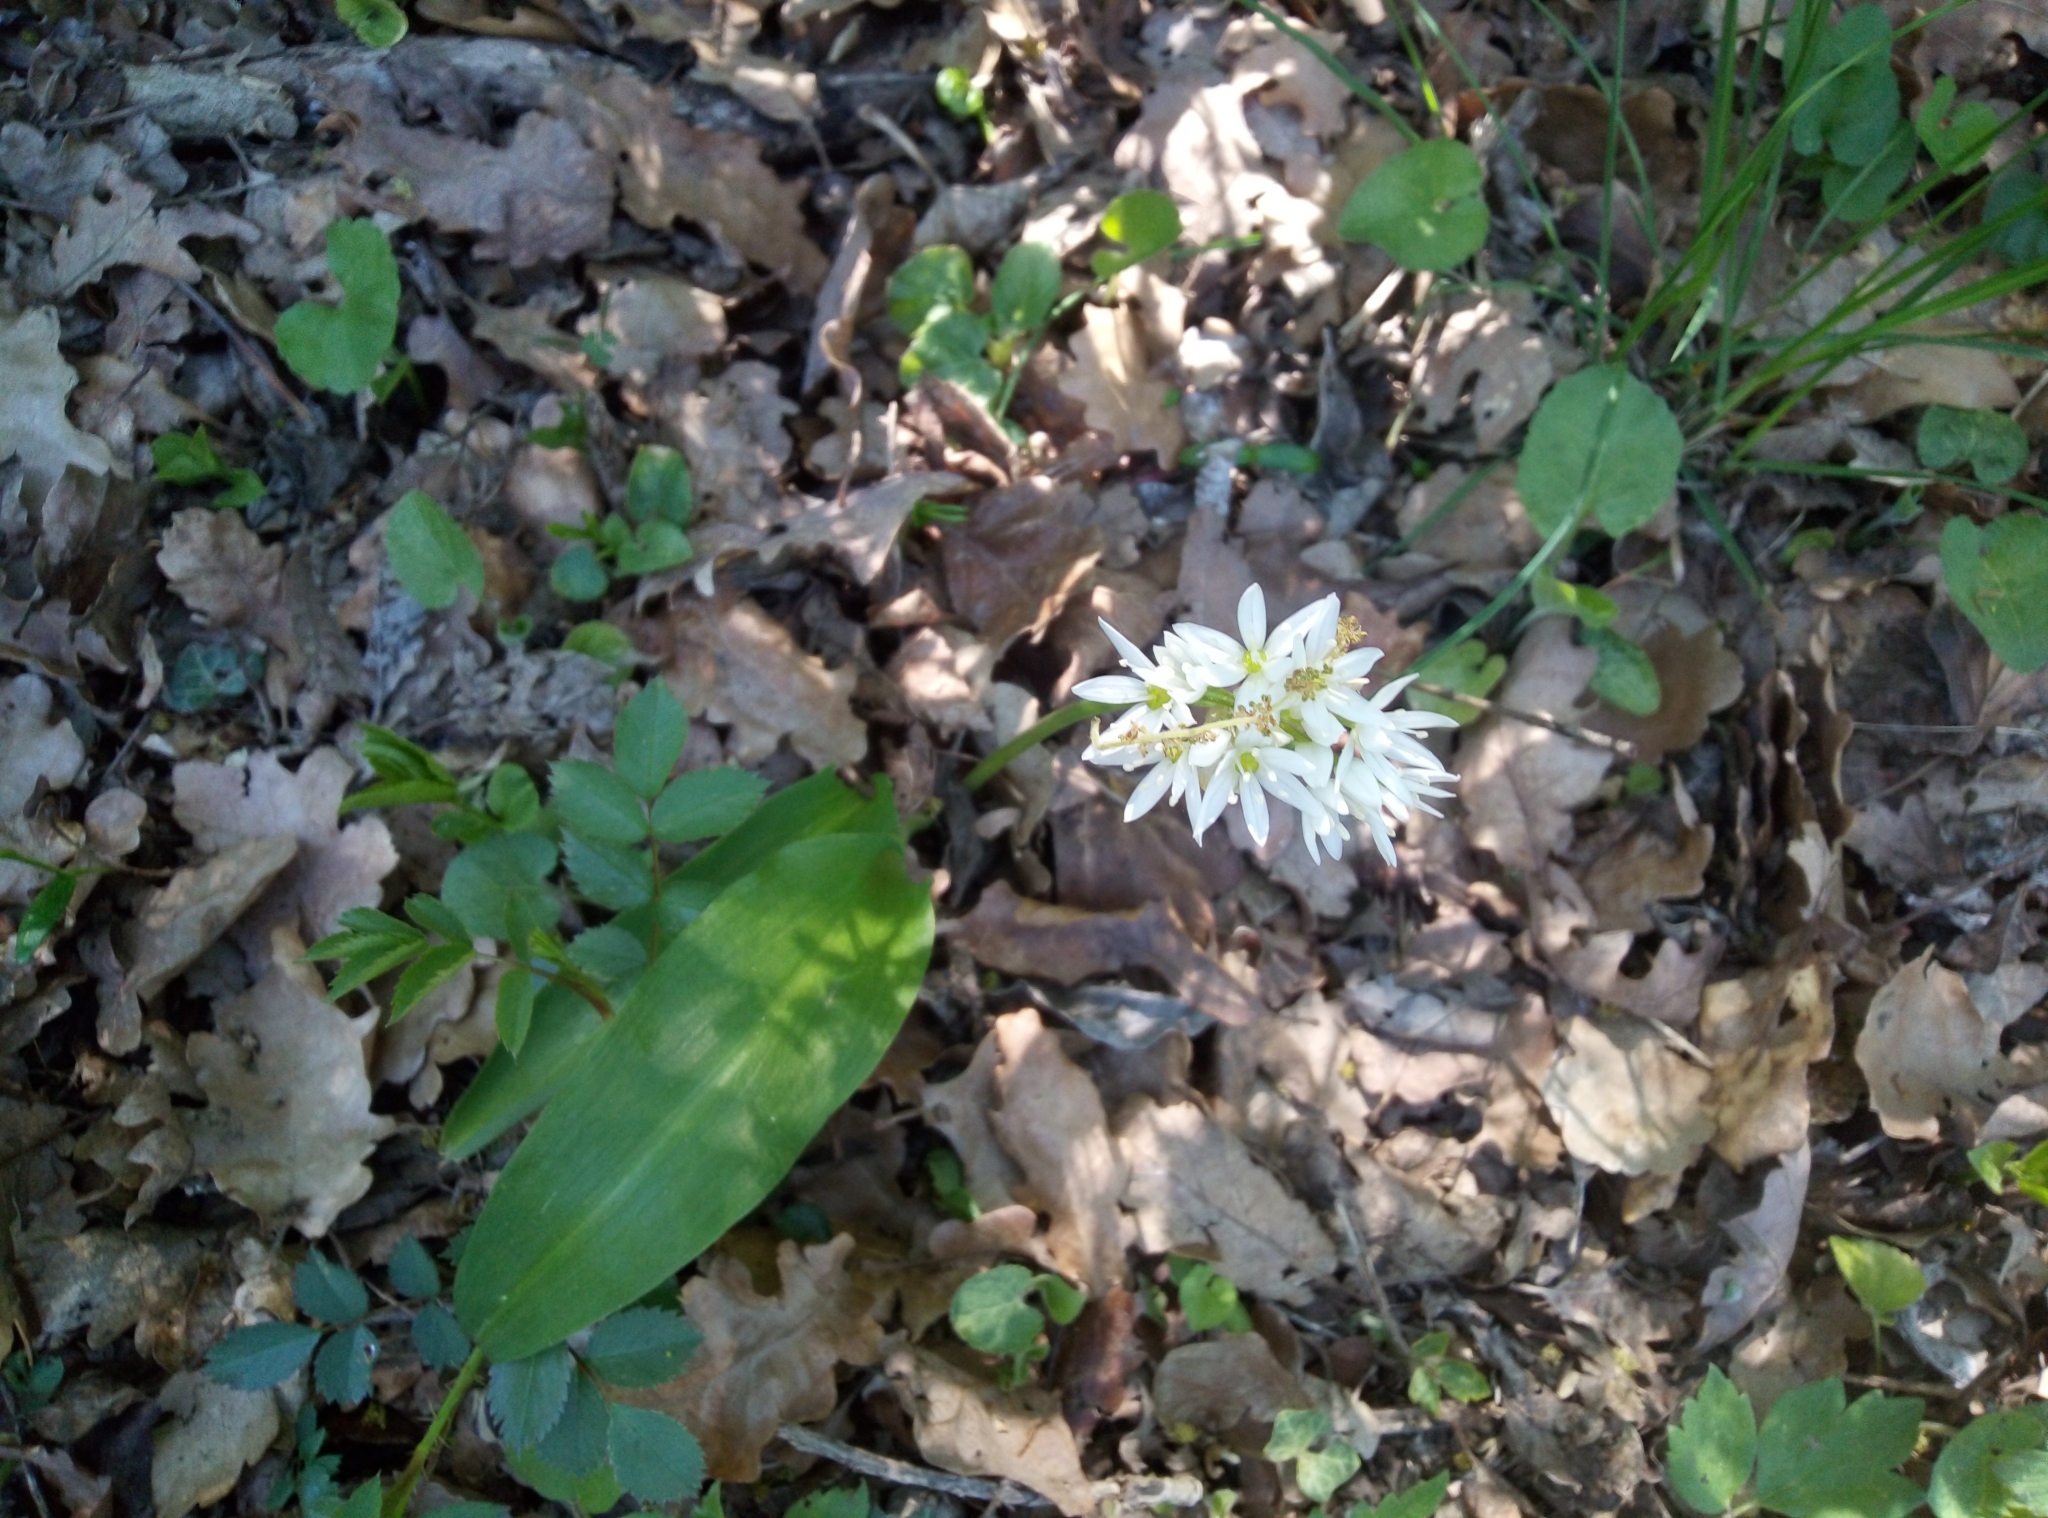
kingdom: Plantae
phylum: Tracheophyta
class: Liliopsida
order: Asparagales
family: Amaryllidaceae
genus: Allium
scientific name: Allium ursinum
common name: Ramsons
